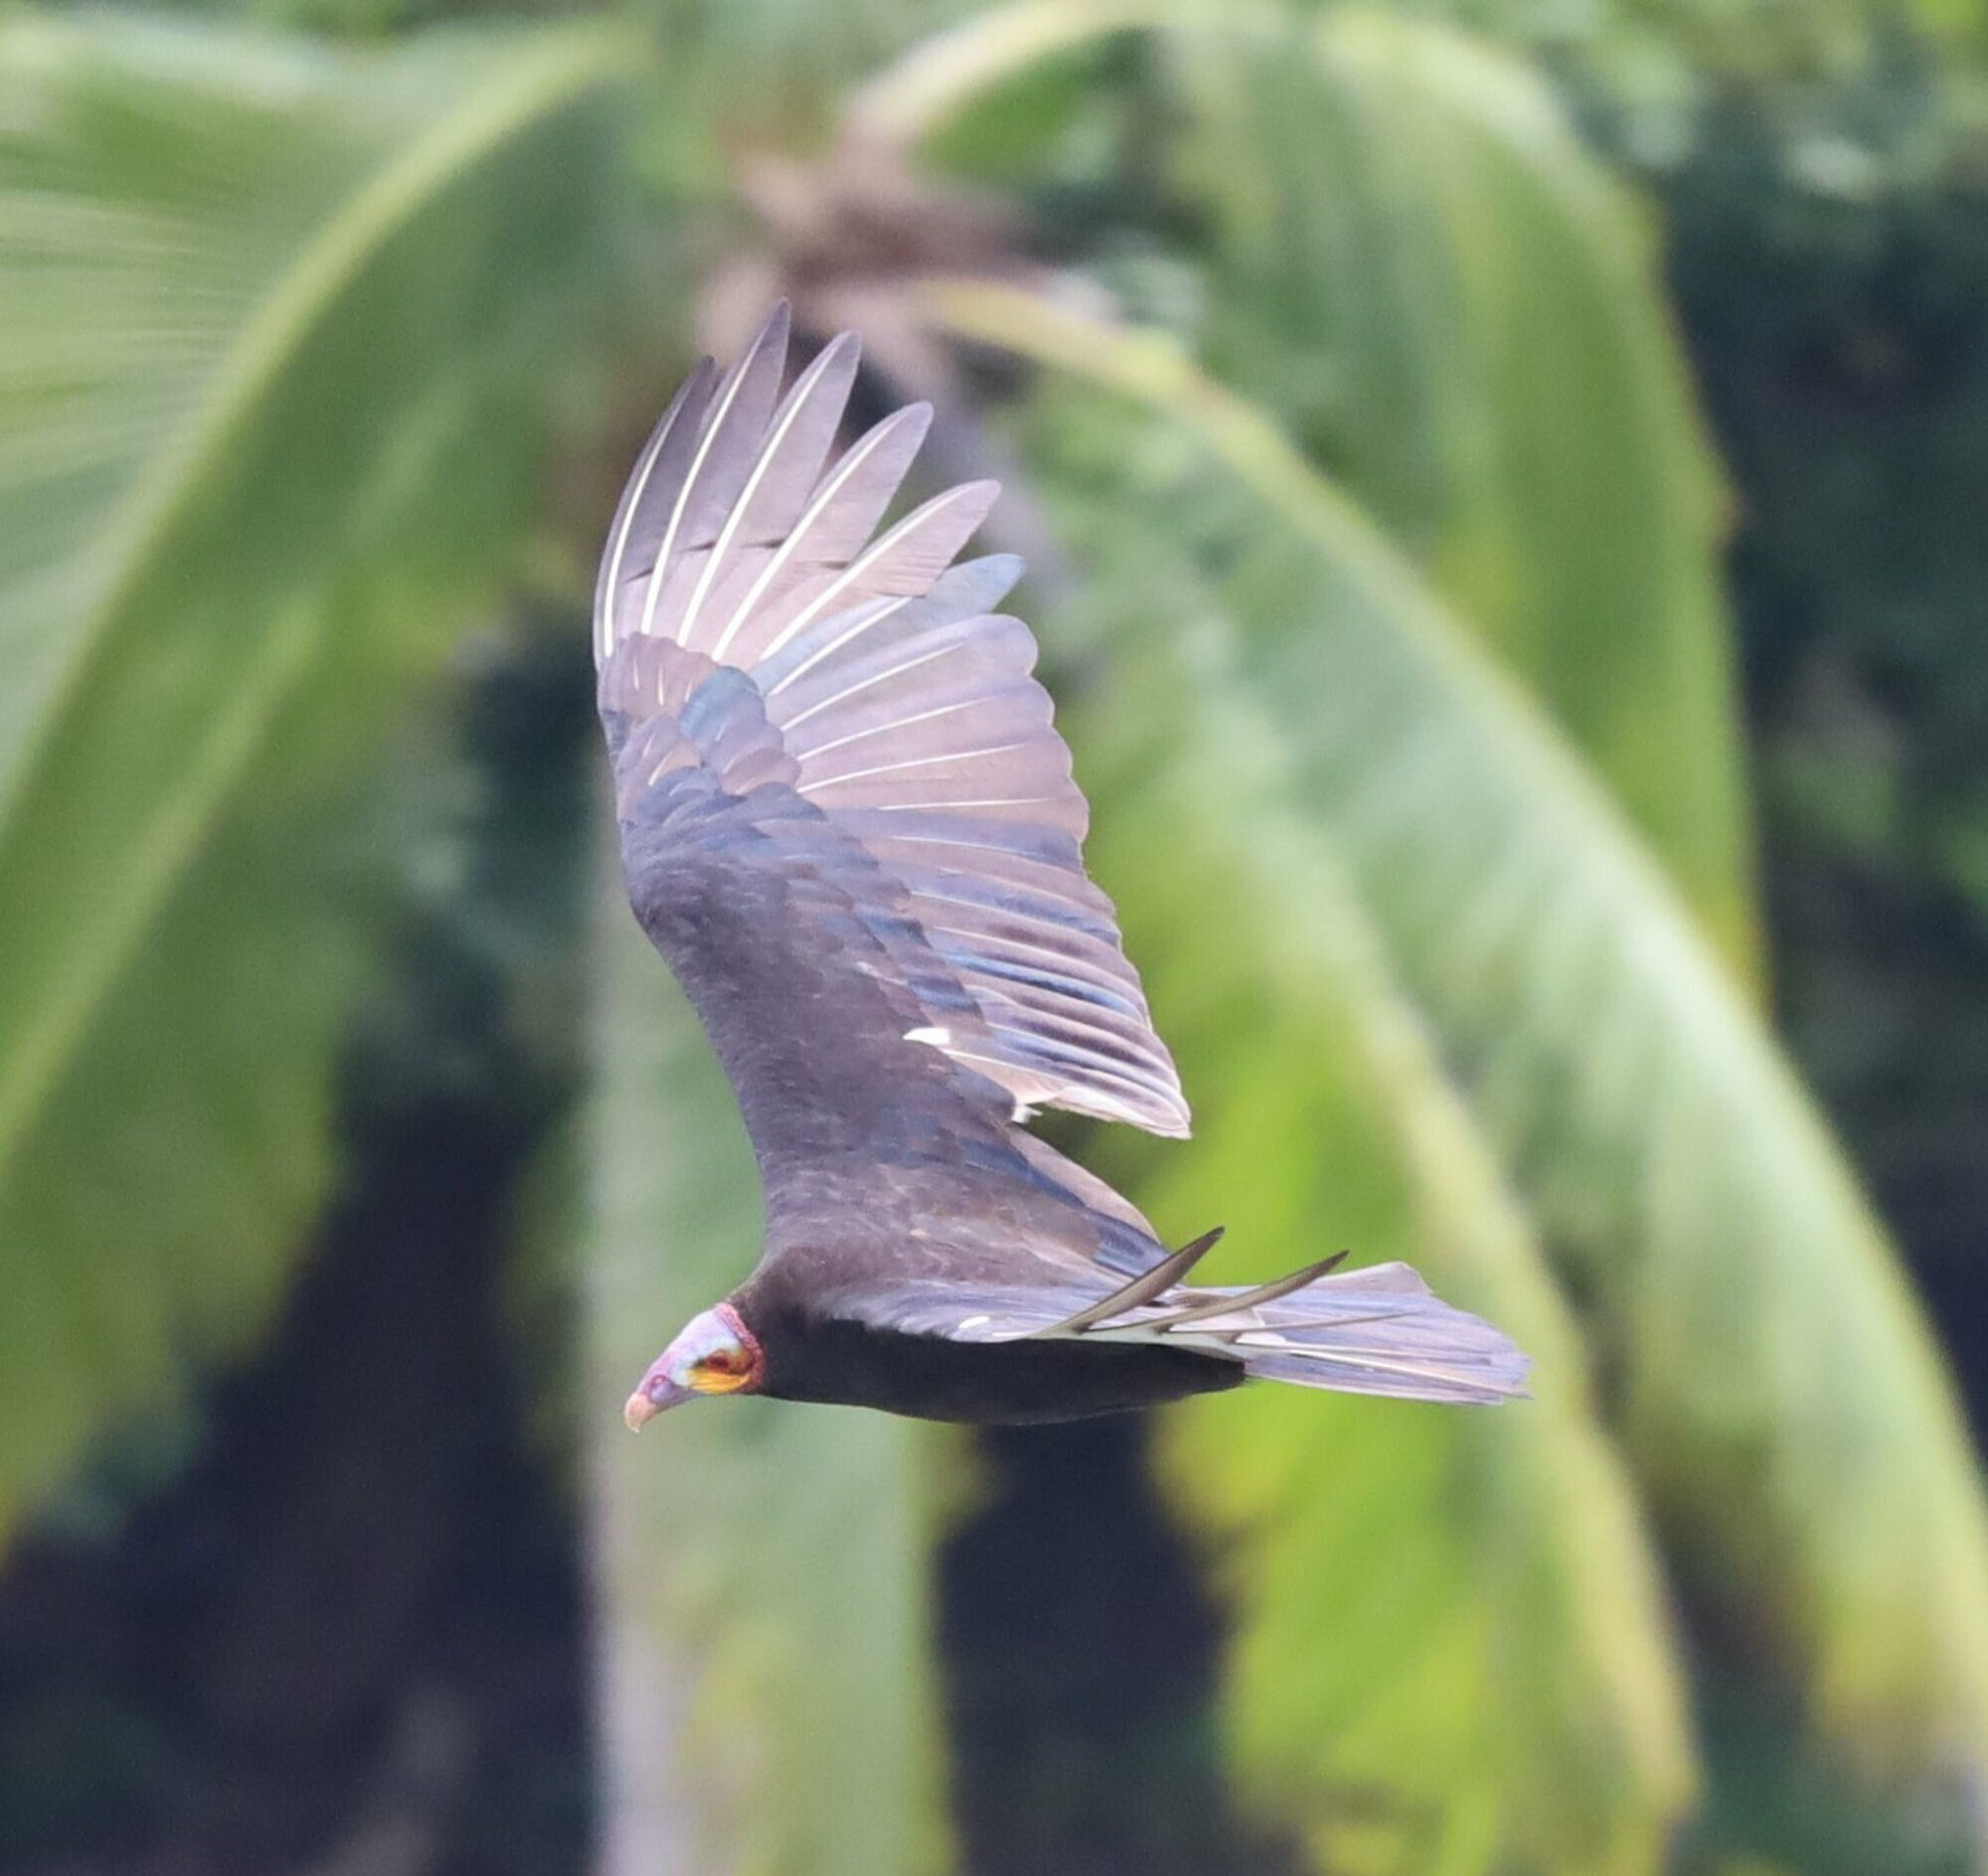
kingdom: Animalia
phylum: Chordata
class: Aves
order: Accipitriformes
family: Cathartidae
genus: Cathartes
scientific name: Cathartes burrovianus
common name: Lesser yellow-headed vulture
